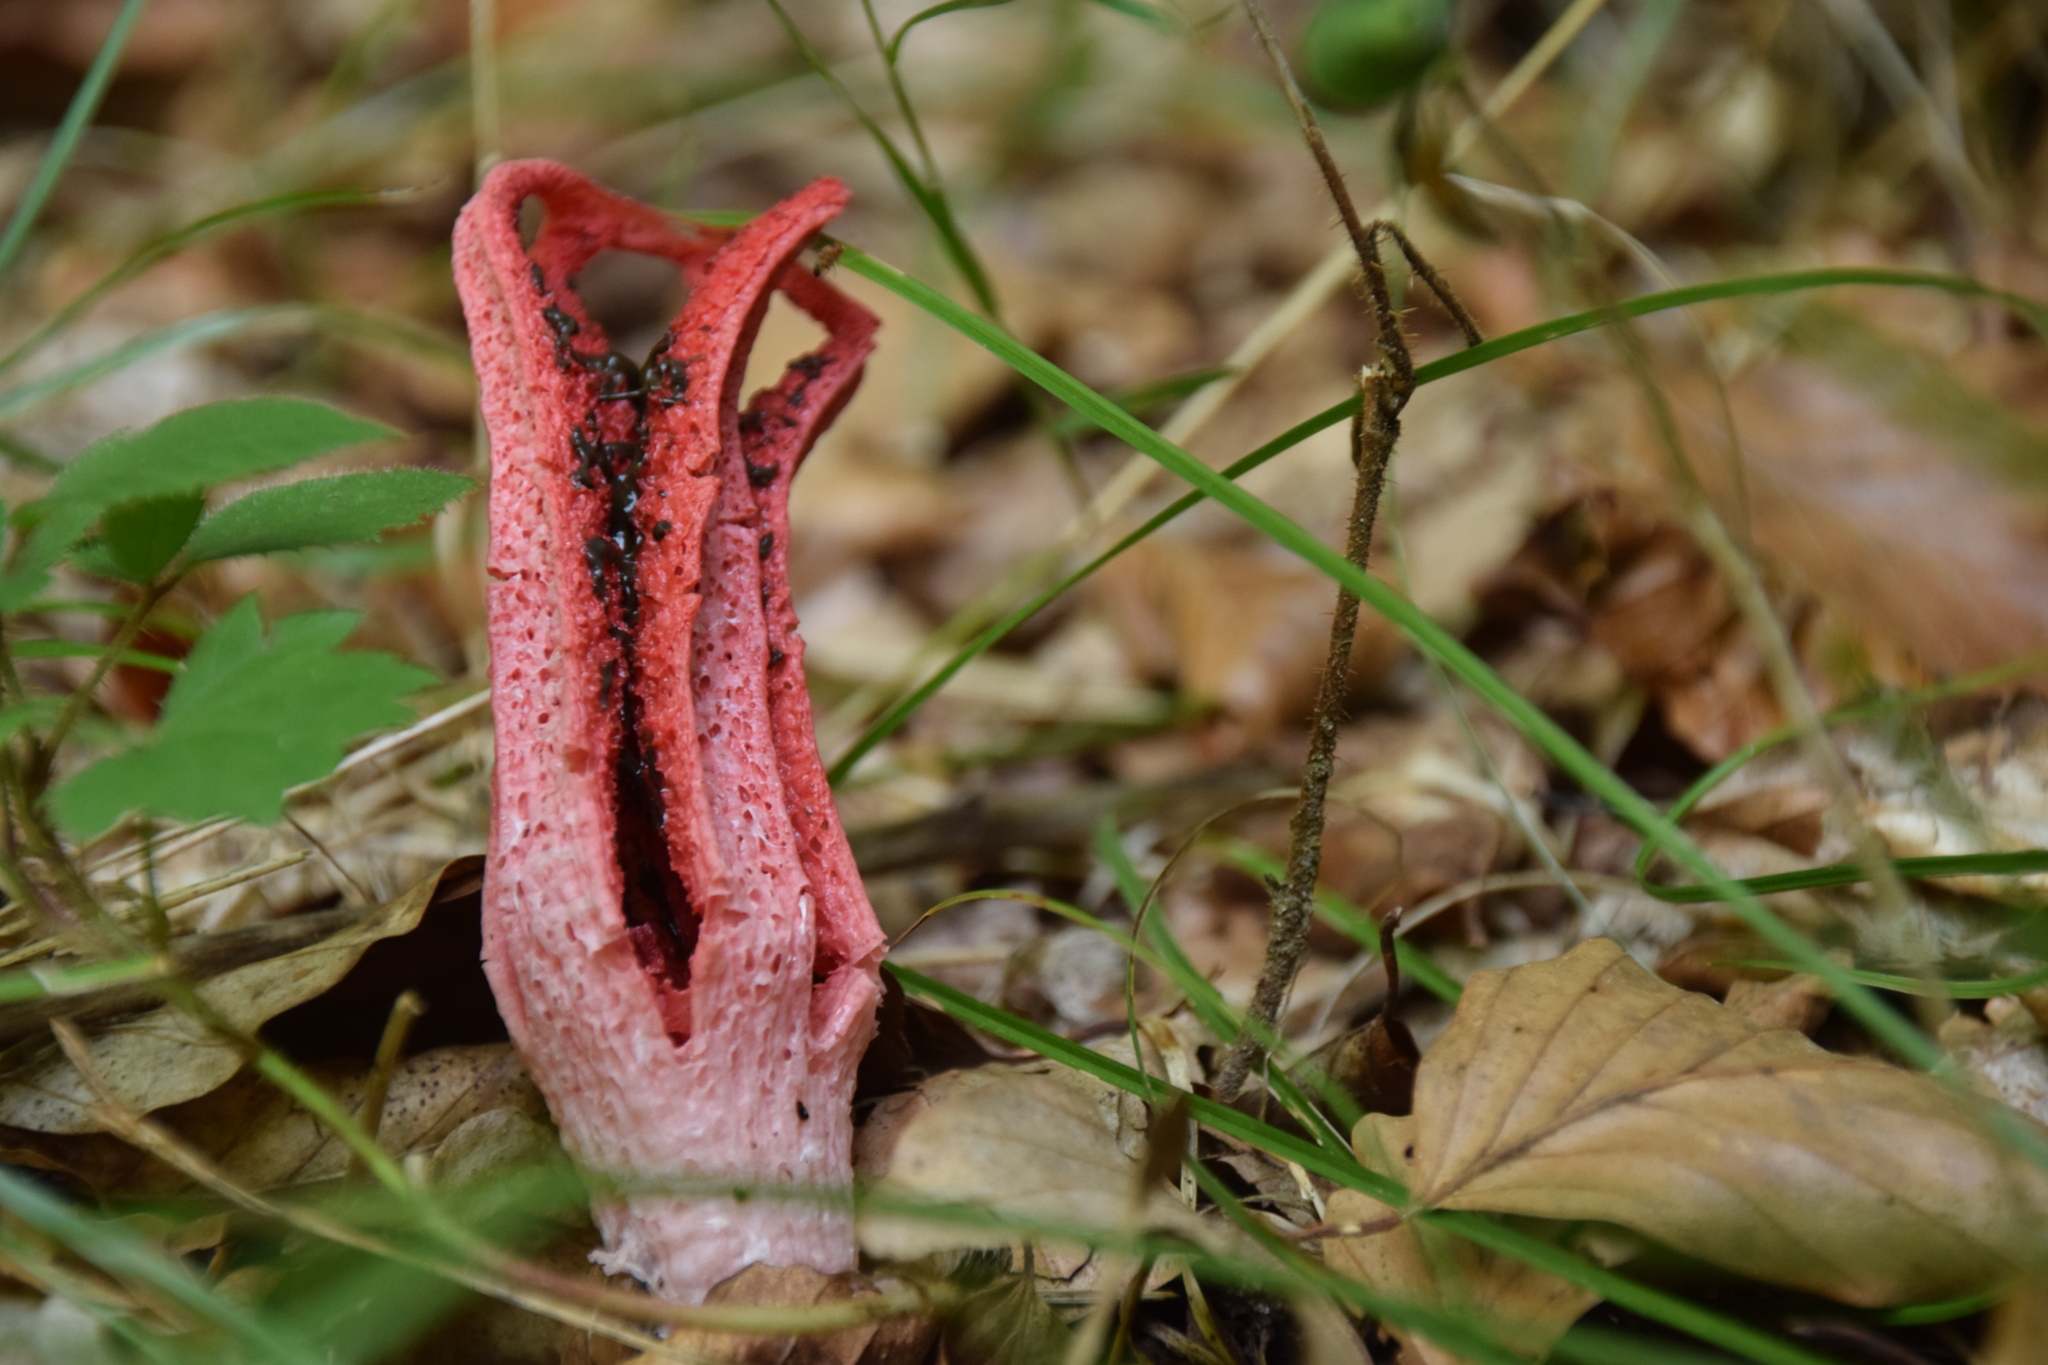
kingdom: Fungi
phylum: Basidiomycota
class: Agaricomycetes
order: Phallales
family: Phallaceae
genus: Clathrus
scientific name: Clathrus archeri
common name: Devil's fingers
